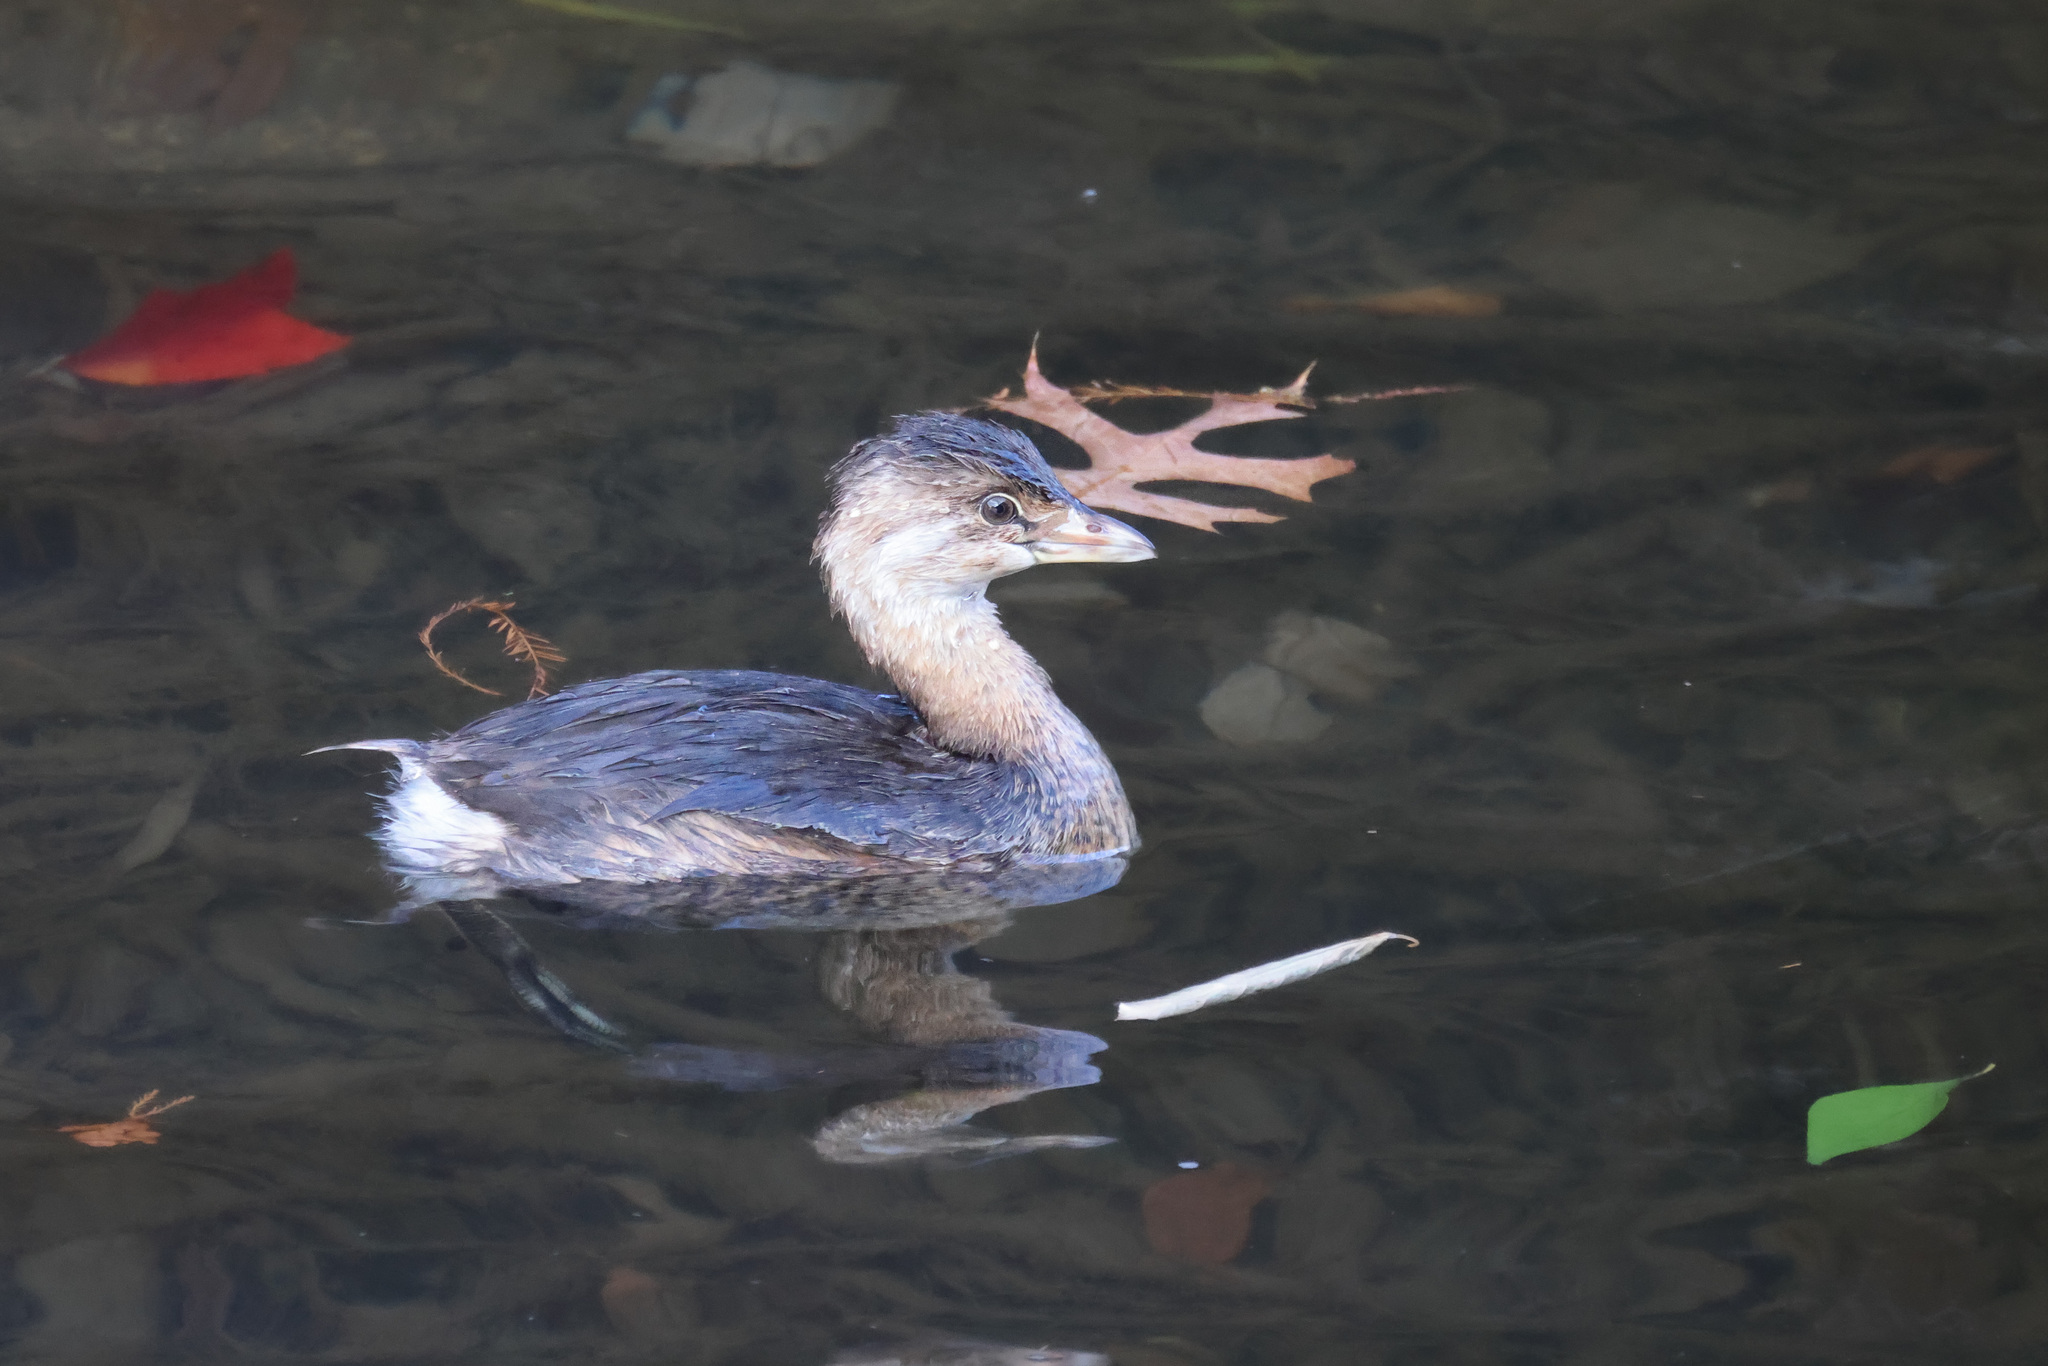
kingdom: Animalia
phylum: Chordata
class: Aves
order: Podicipediformes
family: Podicipedidae
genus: Podilymbus
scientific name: Podilymbus podiceps
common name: Pied-billed grebe
